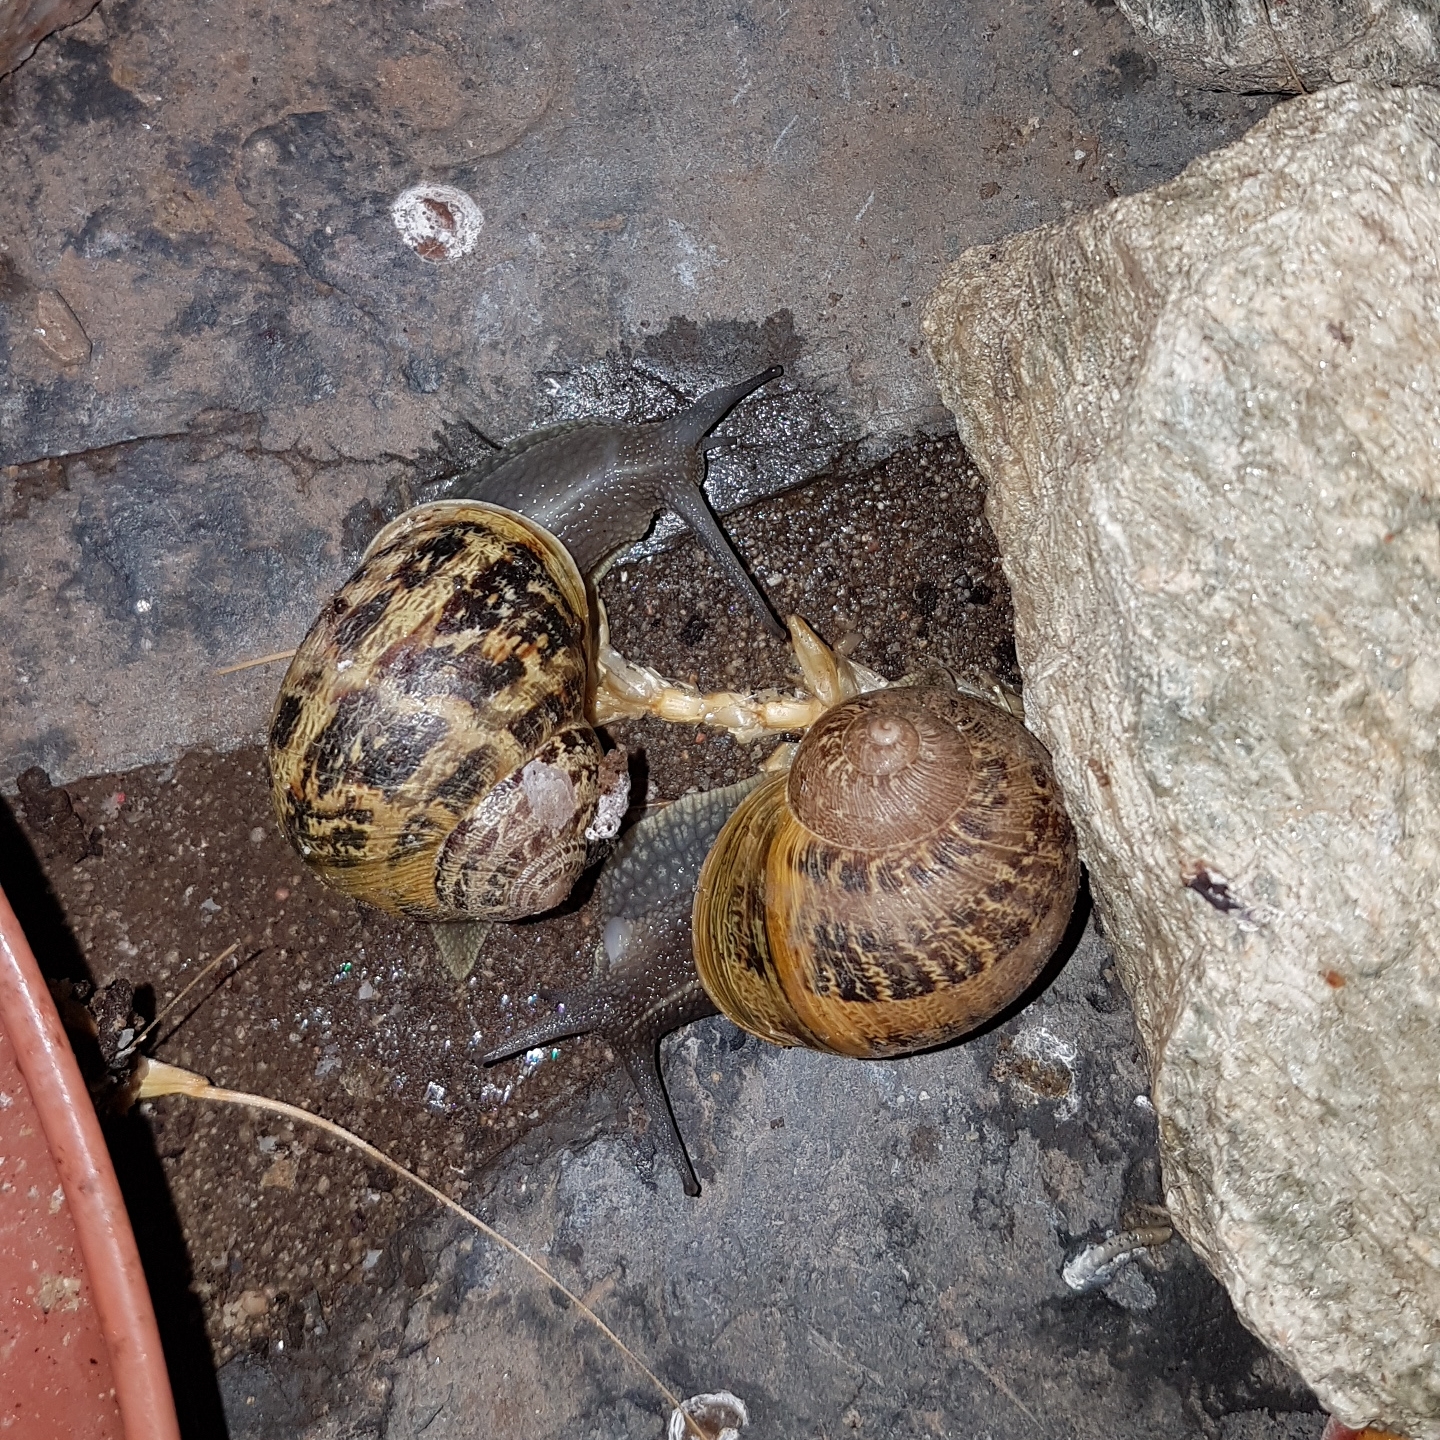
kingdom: Animalia
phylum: Mollusca
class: Gastropoda
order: Stylommatophora
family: Helicidae
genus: Cornu
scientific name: Cornu aspersum
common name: Brown garden snail
